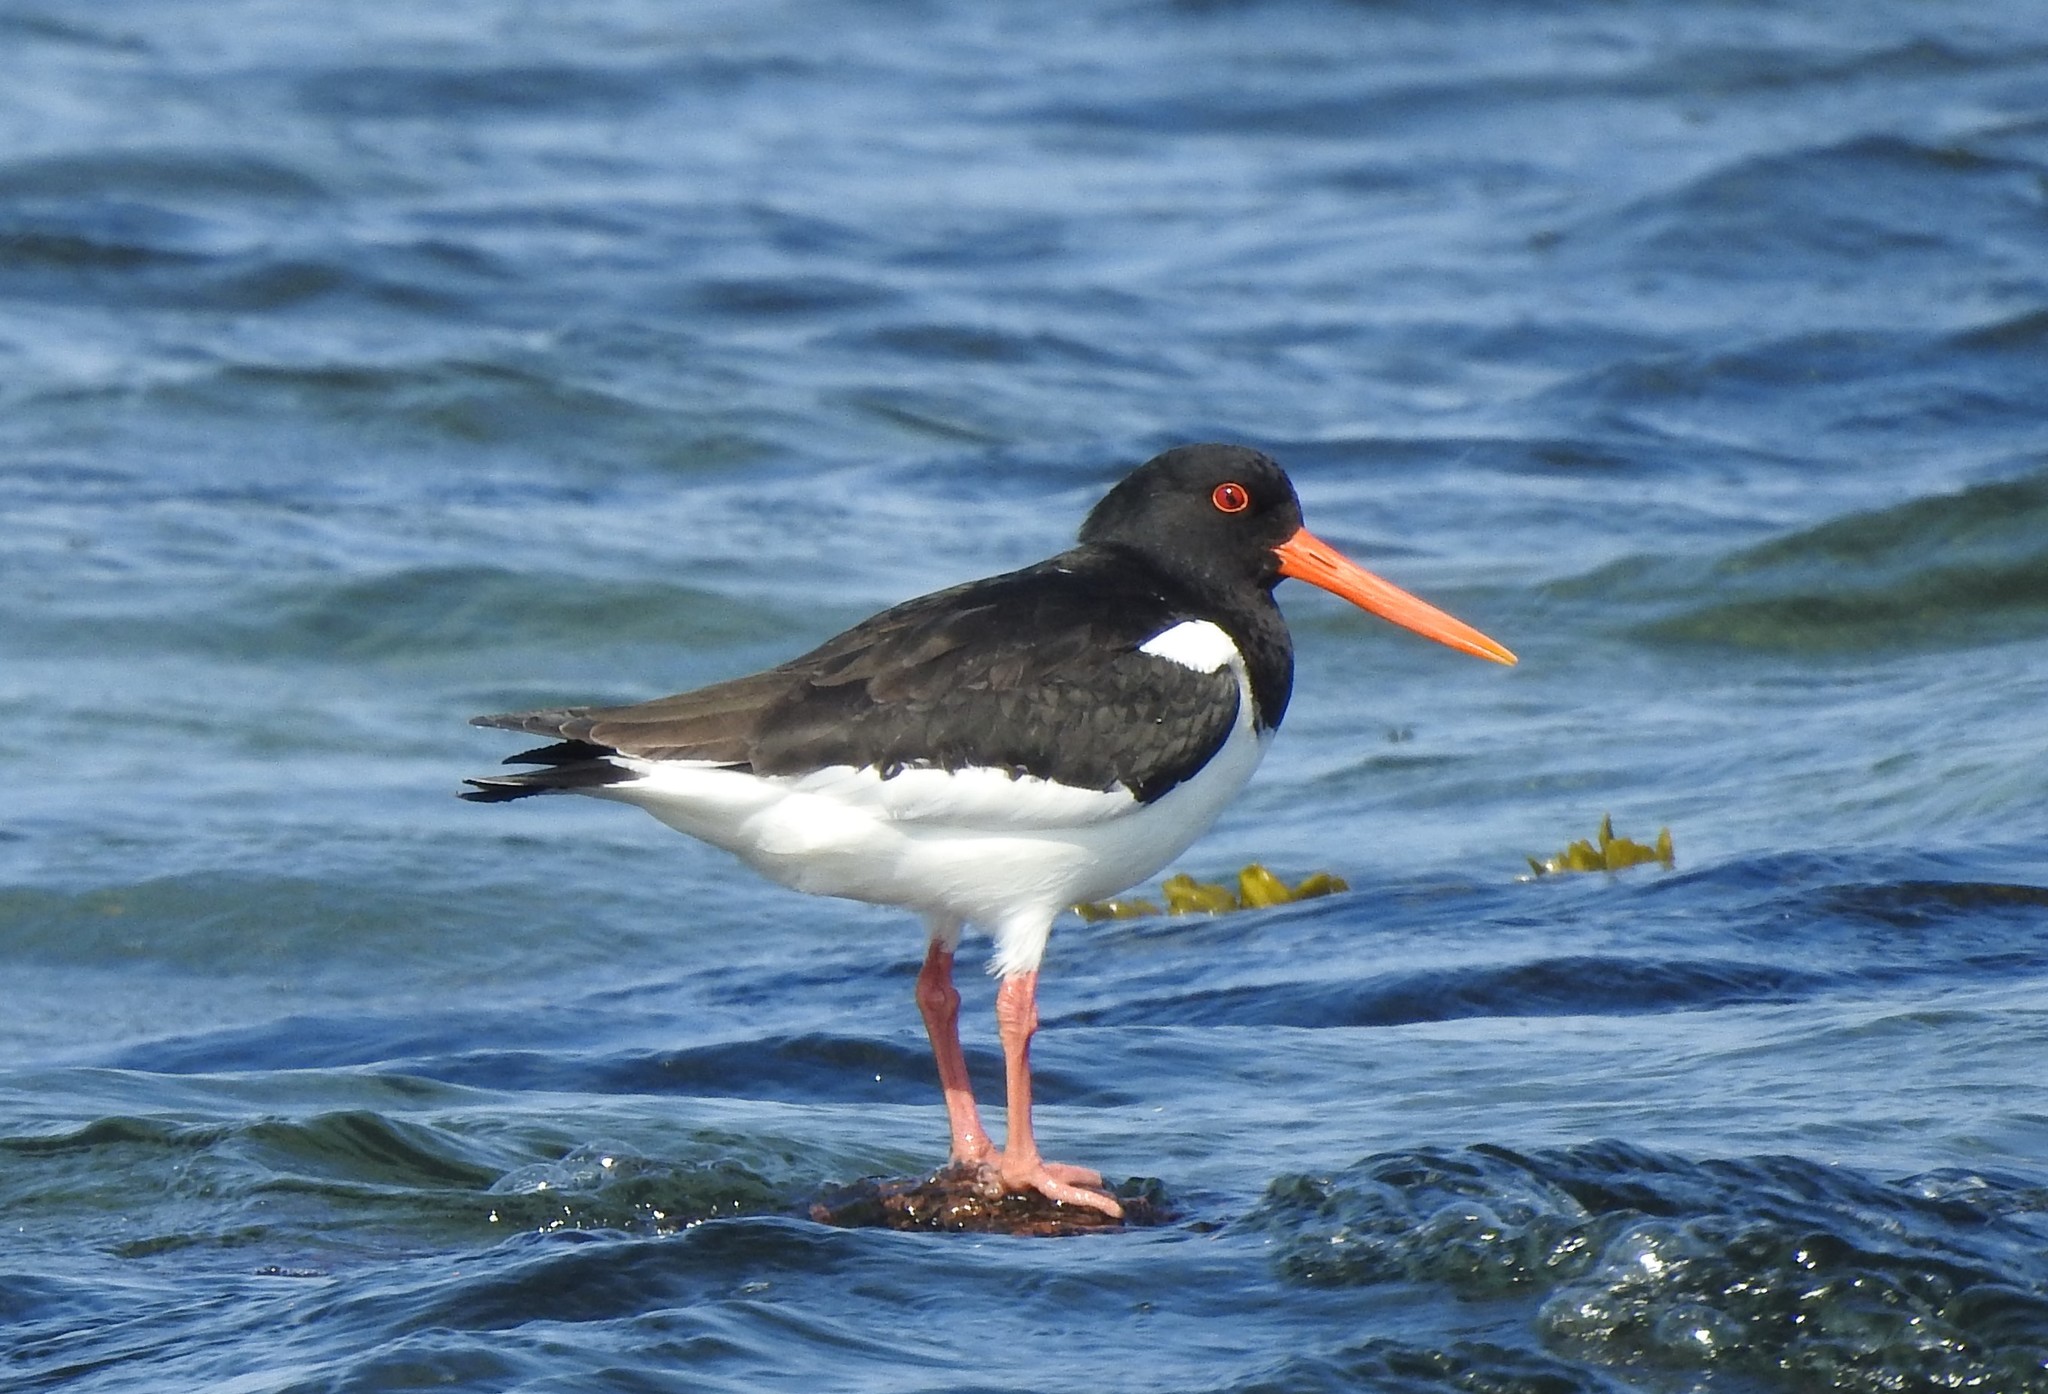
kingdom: Animalia
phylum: Chordata
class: Aves
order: Charadriiformes
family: Haematopodidae
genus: Haematopus
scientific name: Haematopus ostralegus
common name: Eurasian oystercatcher
